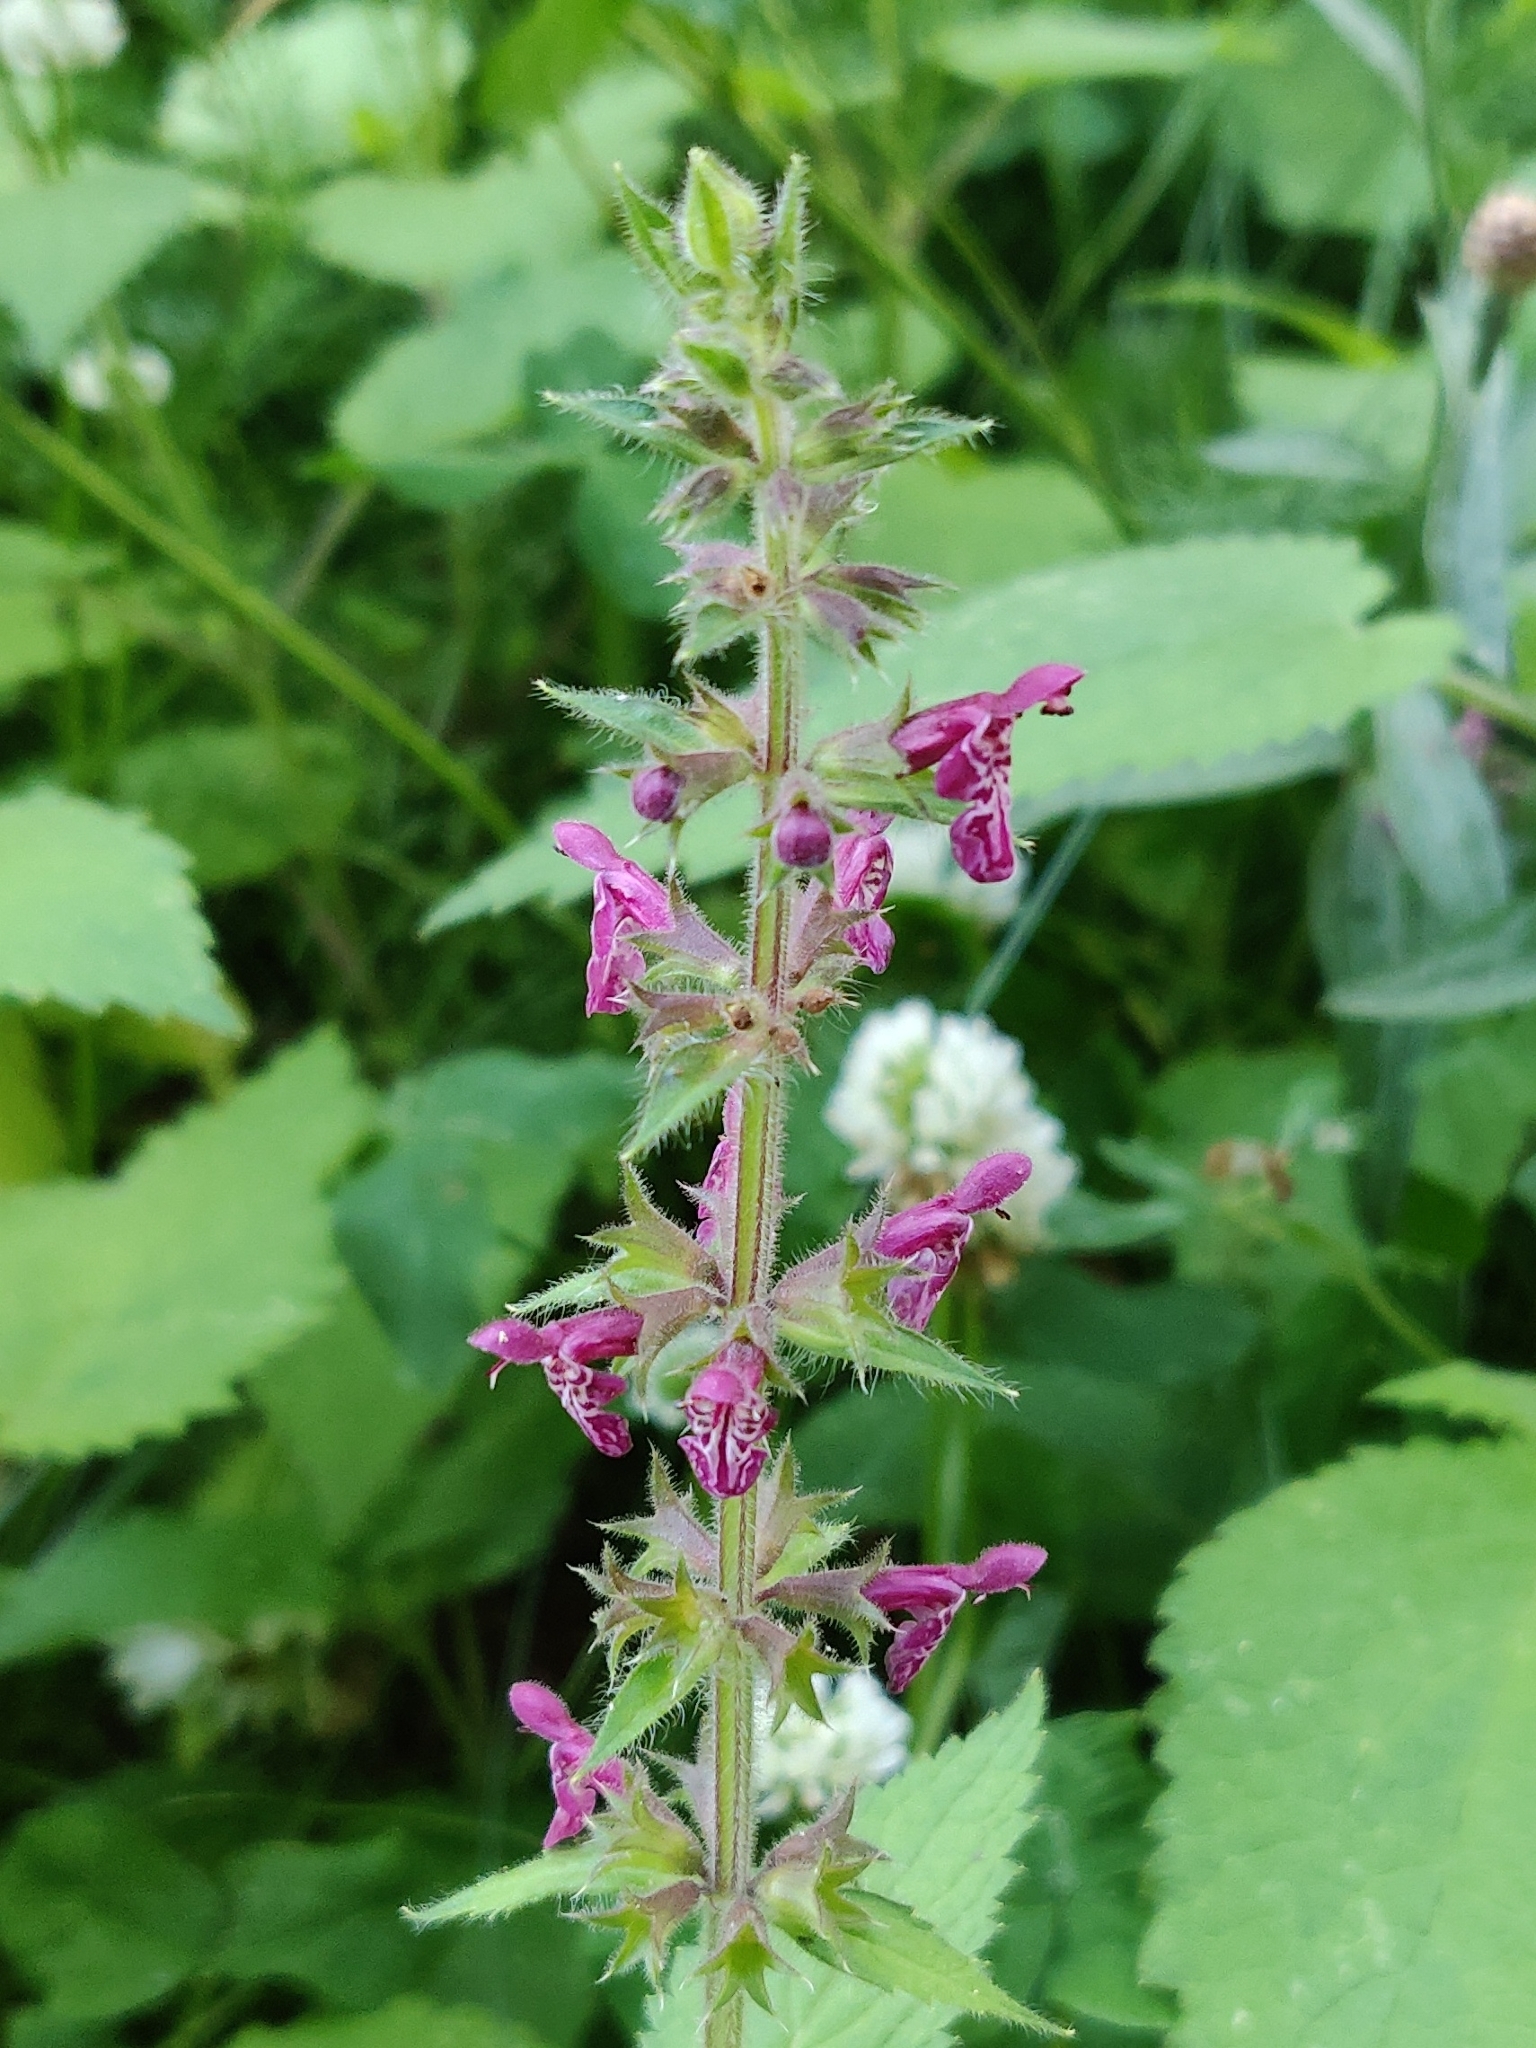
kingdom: Plantae
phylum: Tracheophyta
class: Magnoliopsida
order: Lamiales
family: Lamiaceae
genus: Stachys
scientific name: Stachys sylvatica
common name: Hedge woundwort
